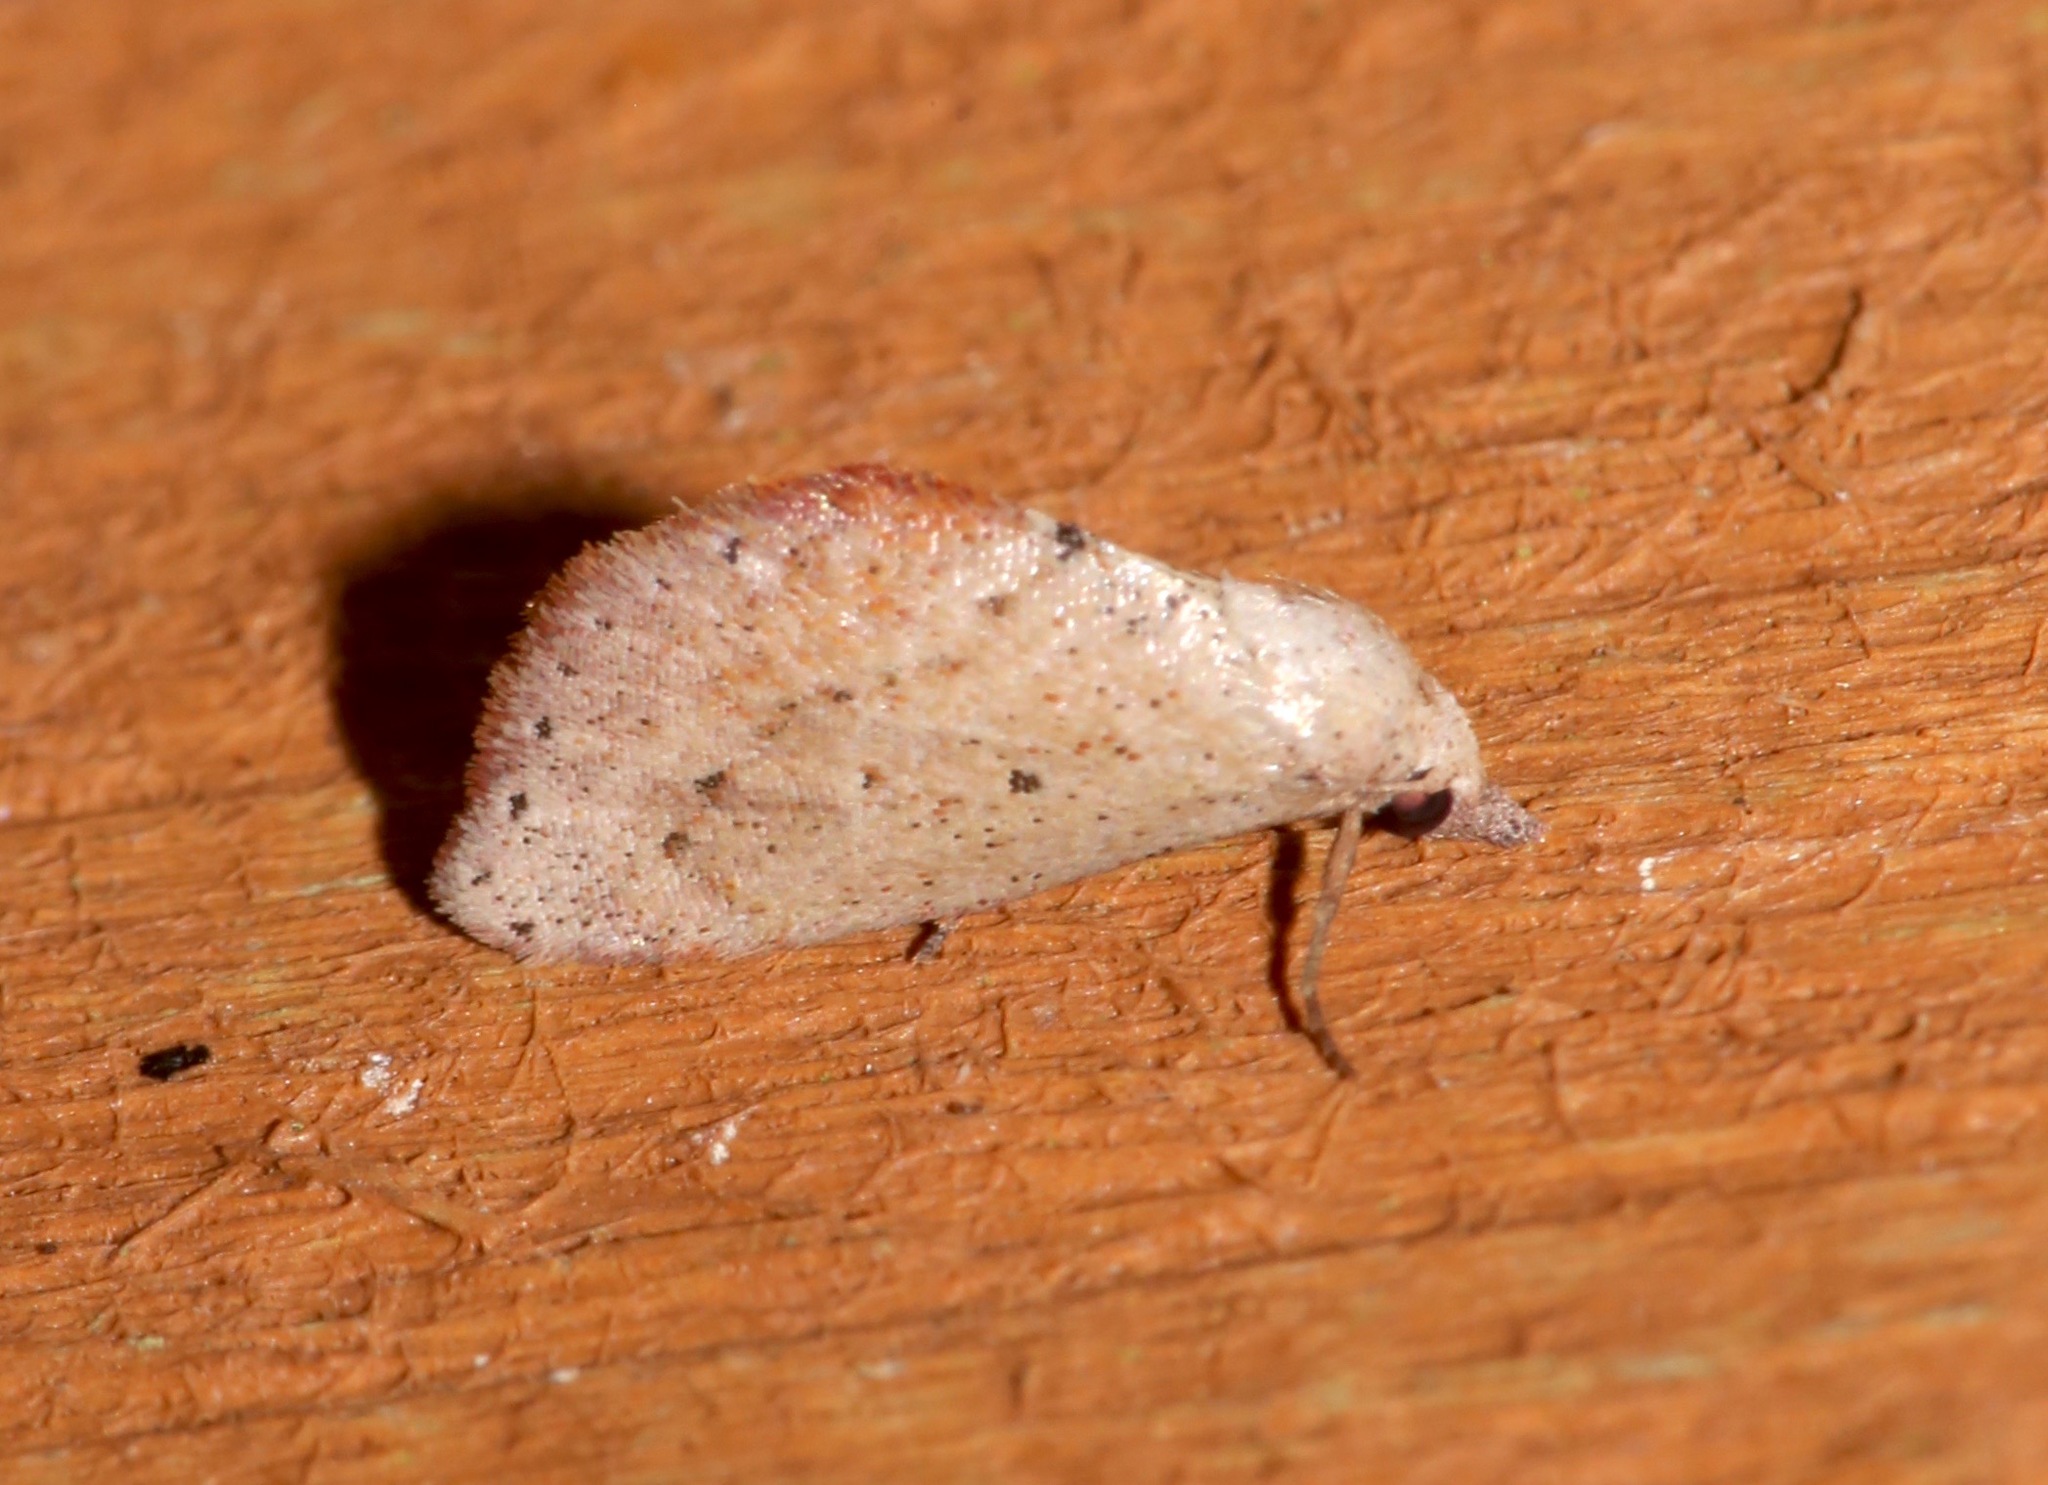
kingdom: Animalia
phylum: Arthropoda
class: Insecta
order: Lepidoptera
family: Noctuidae
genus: Proroblemma
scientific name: Proroblemma testa
